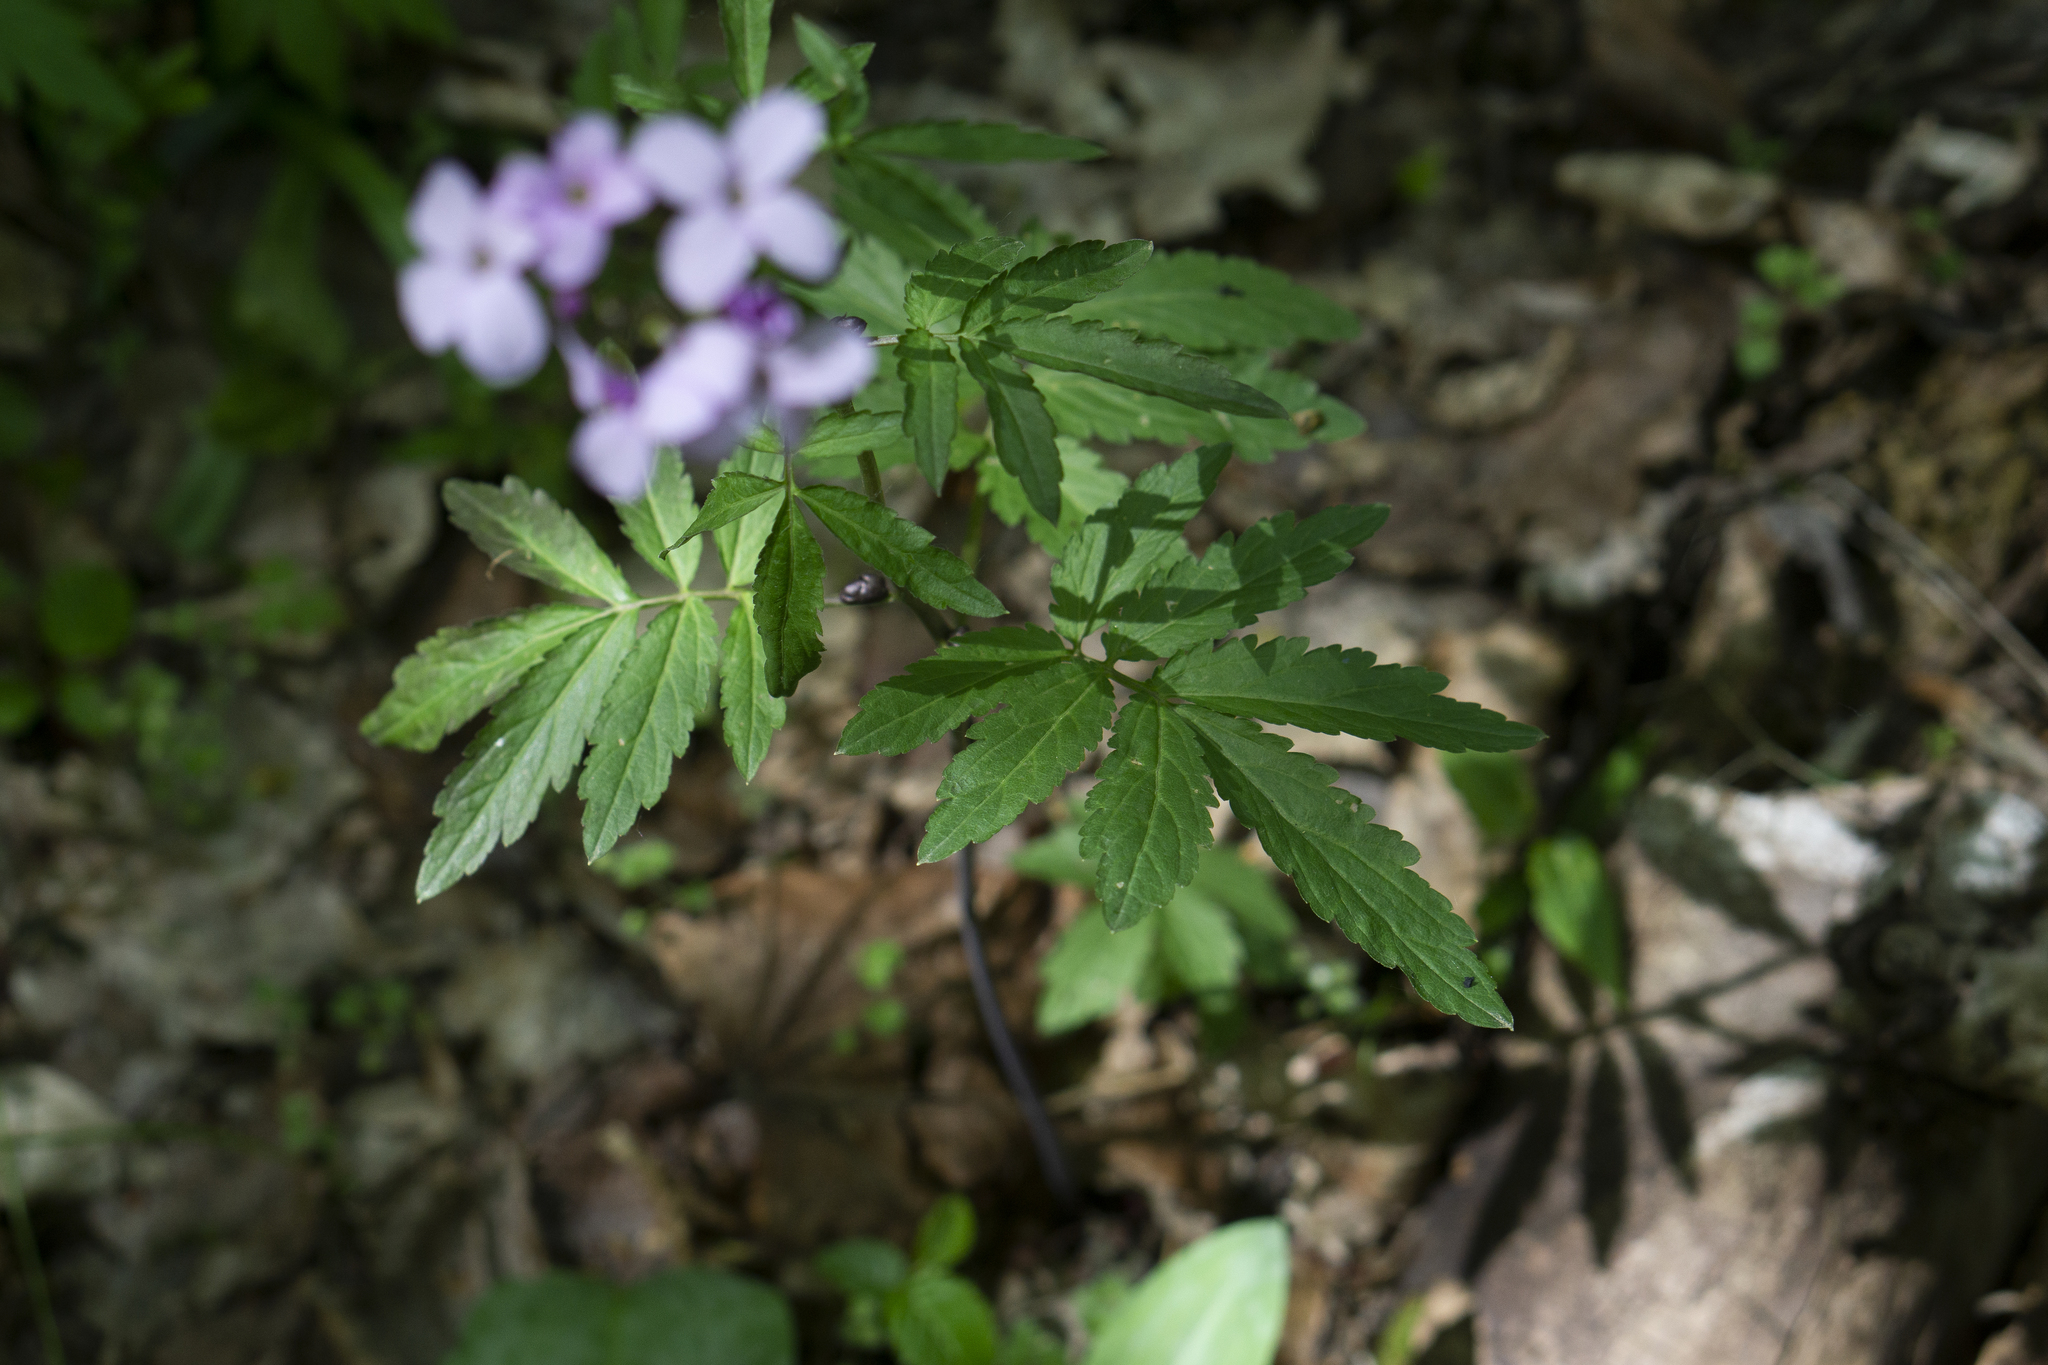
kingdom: Plantae
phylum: Tracheophyta
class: Magnoliopsida
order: Brassicales
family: Brassicaceae
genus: Cardamine
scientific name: Cardamine bulbifera
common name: Coralroot bittercress
